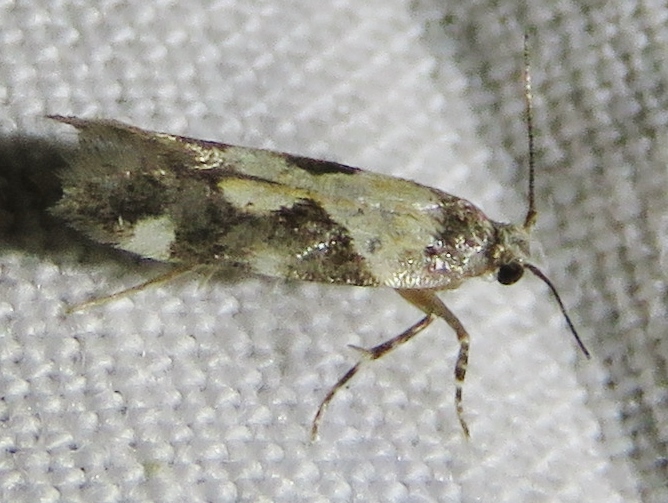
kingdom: Animalia
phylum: Arthropoda
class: Insecta
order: Lepidoptera
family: Gelechiidae
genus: Stegasta
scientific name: Stegasta bosqueella
